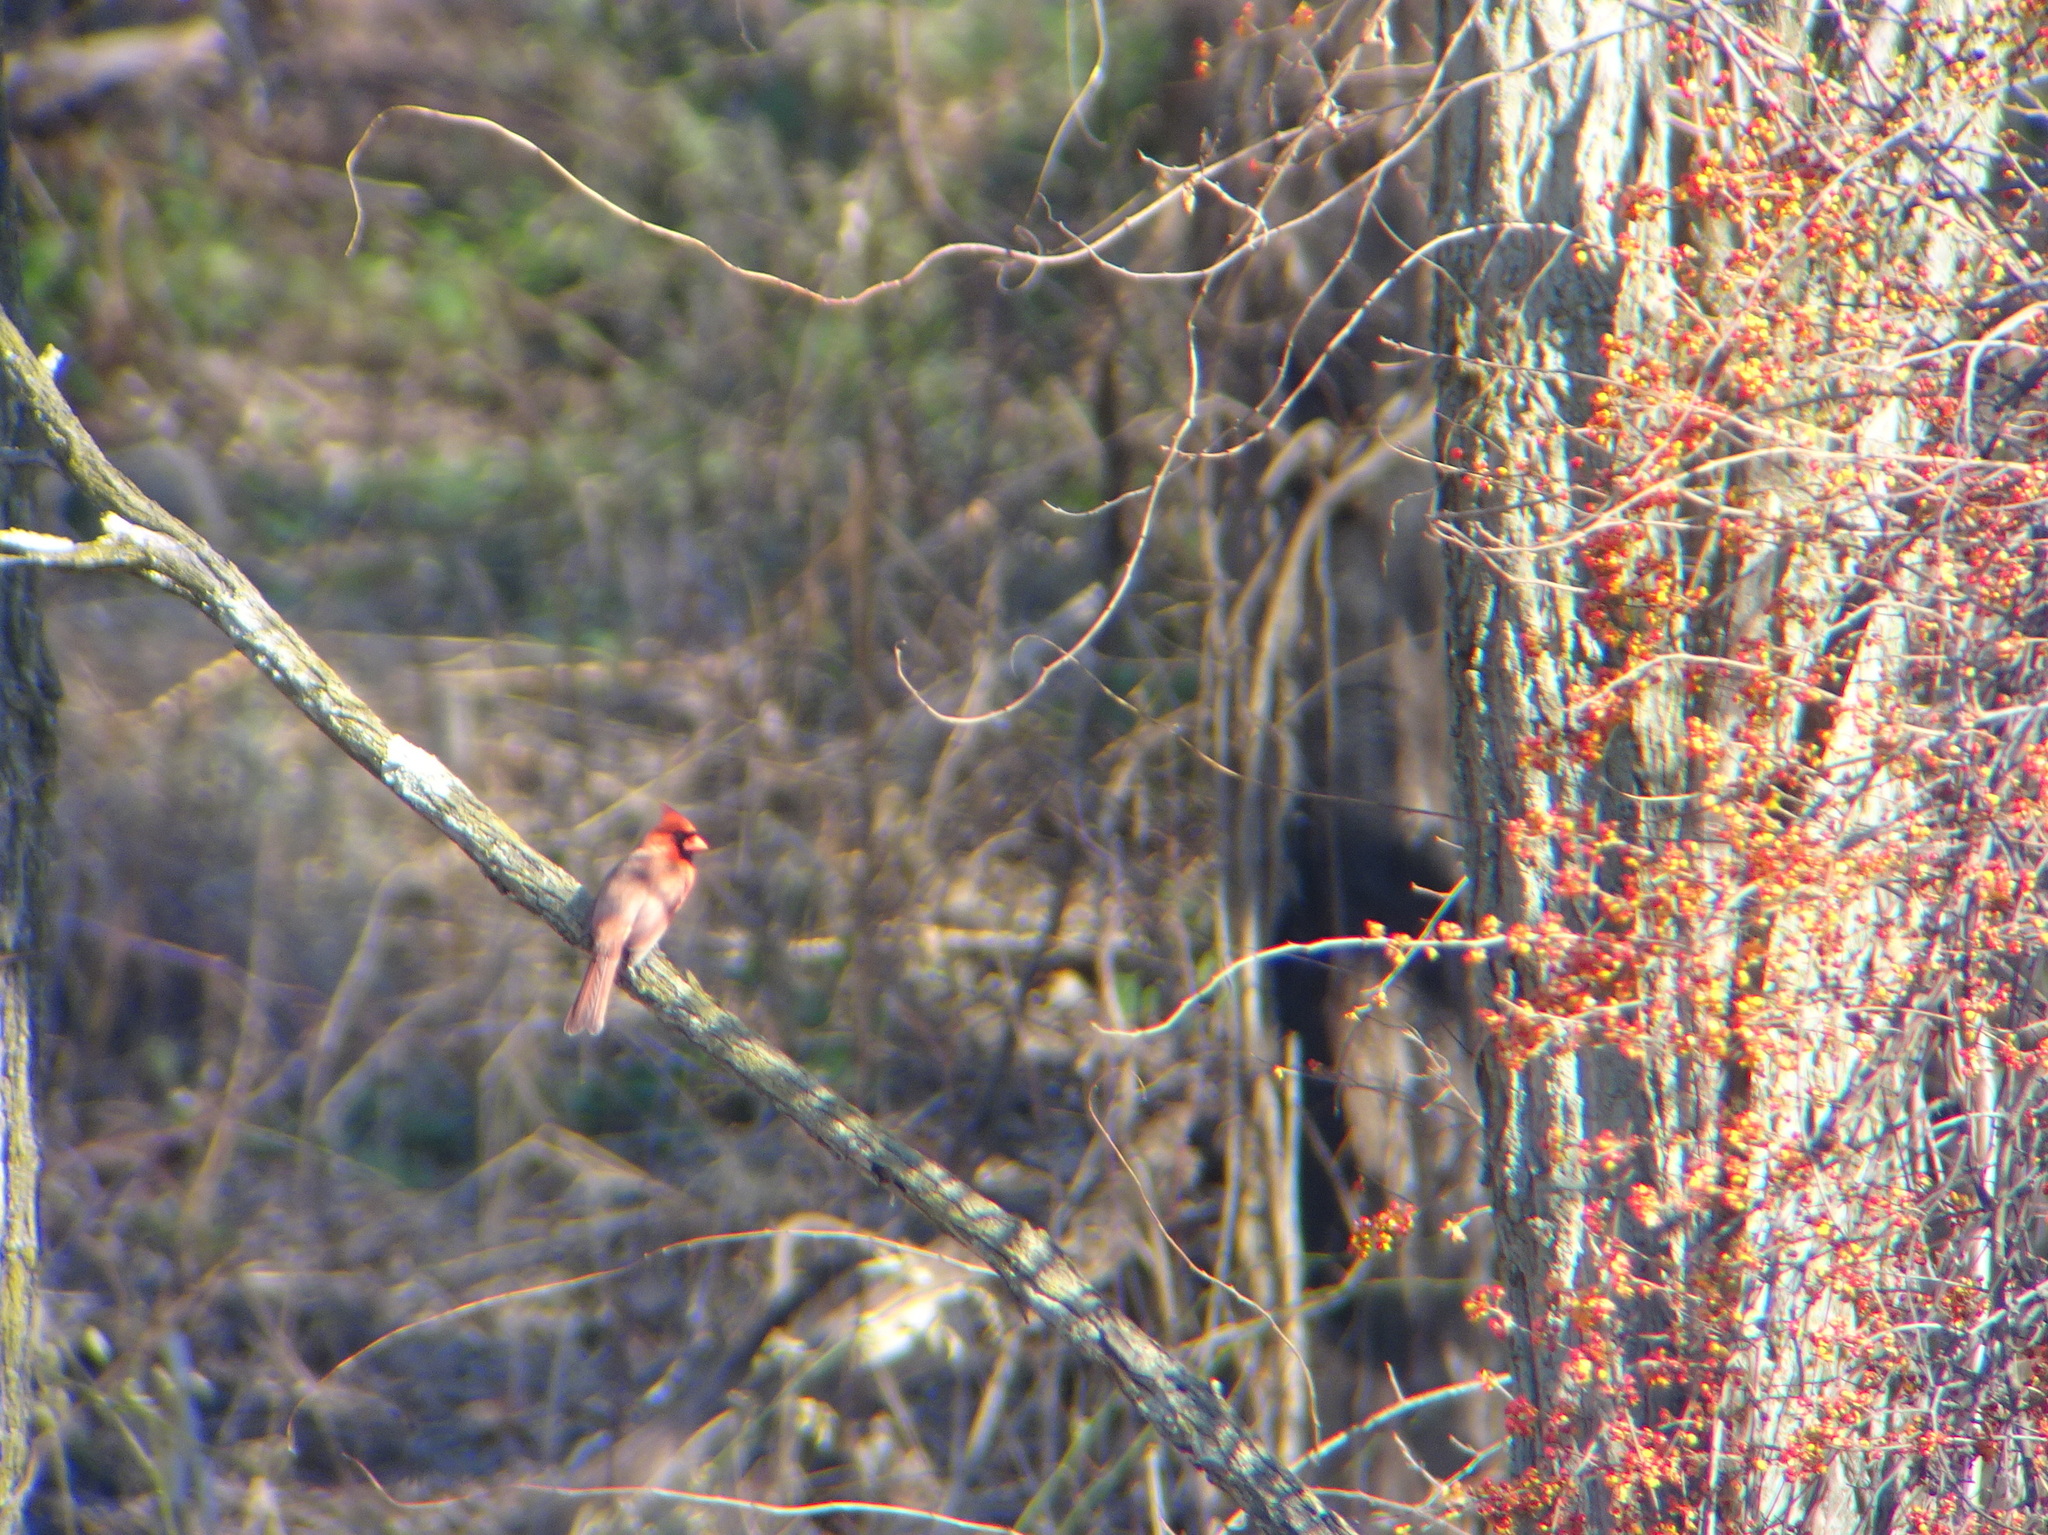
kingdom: Animalia
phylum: Chordata
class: Aves
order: Passeriformes
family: Cardinalidae
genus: Cardinalis
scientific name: Cardinalis cardinalis
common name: Northern cardinal
